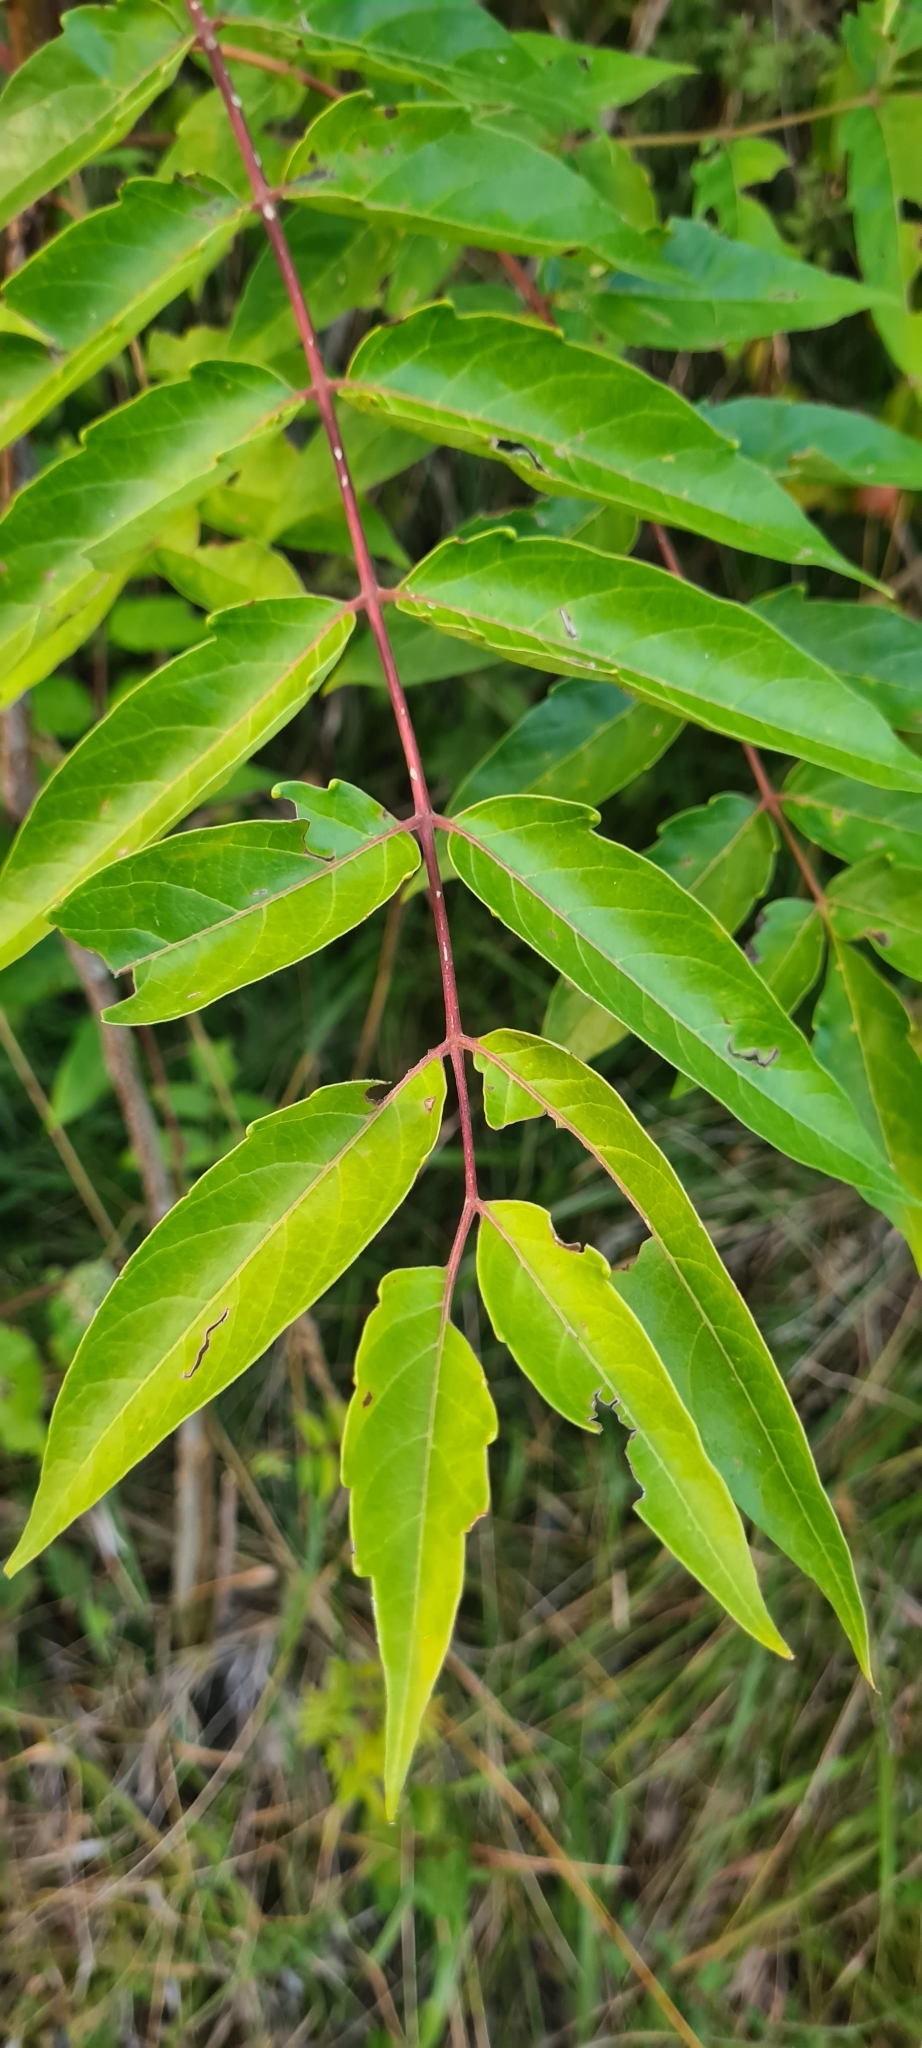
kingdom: Plantae
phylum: Tracheophyta
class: Magnoliopsida
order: Sapindales
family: Simaroubaceae
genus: Ailanthus
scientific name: Ailanthus altissima
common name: Tree-of-heaven
